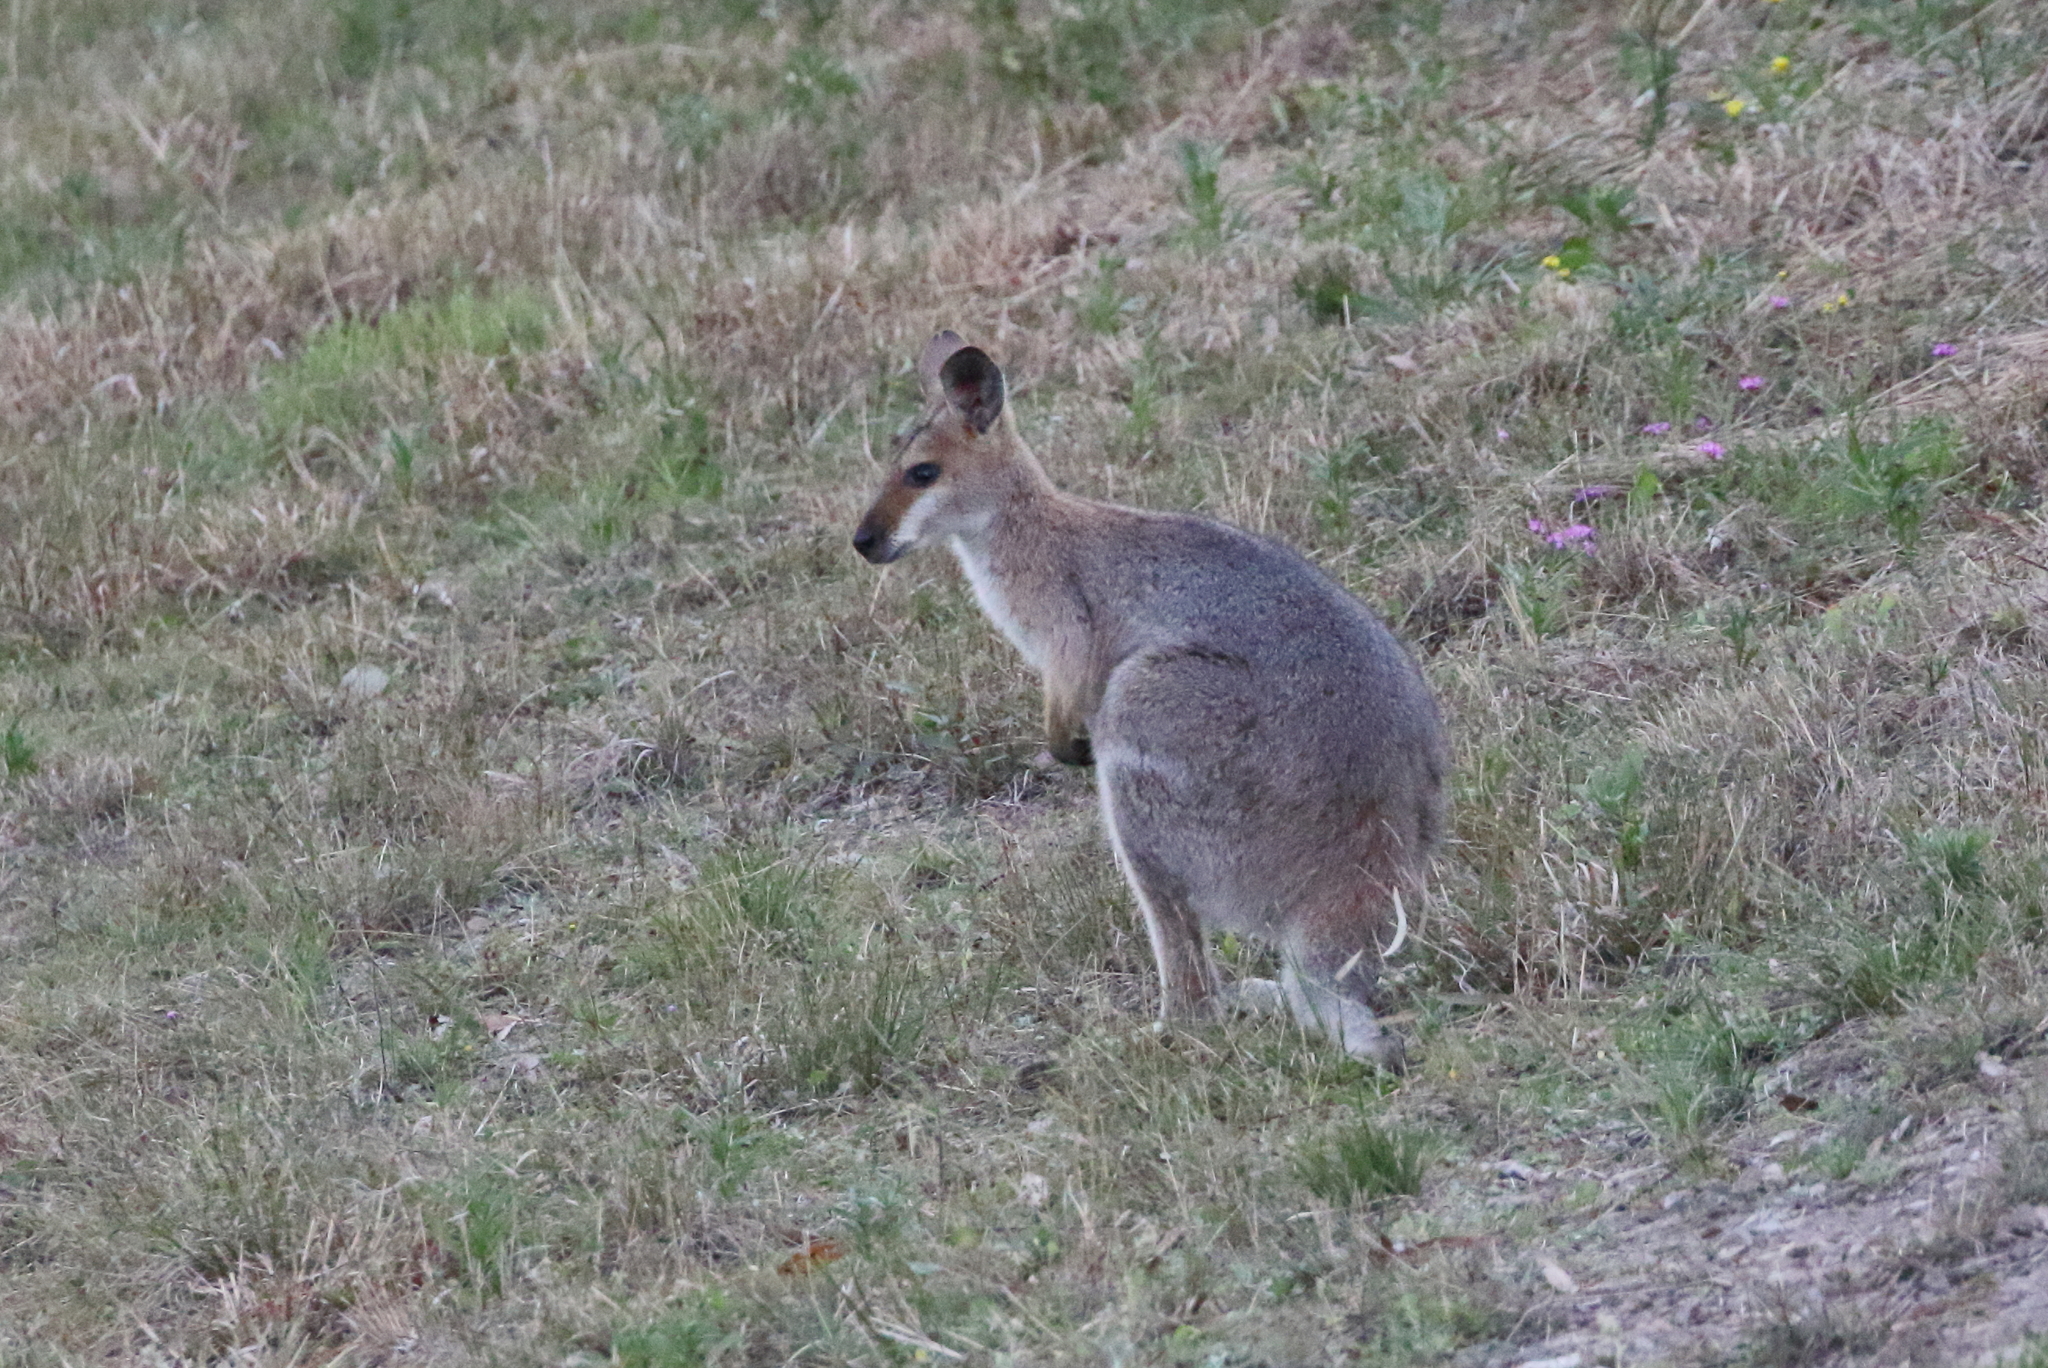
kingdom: Animalia
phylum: Chordata
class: Mammalia
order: Diprotodontia
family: Macropodidae
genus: Notamacropus
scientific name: Notamacropus rufogriseus
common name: Red-necked wallaby
